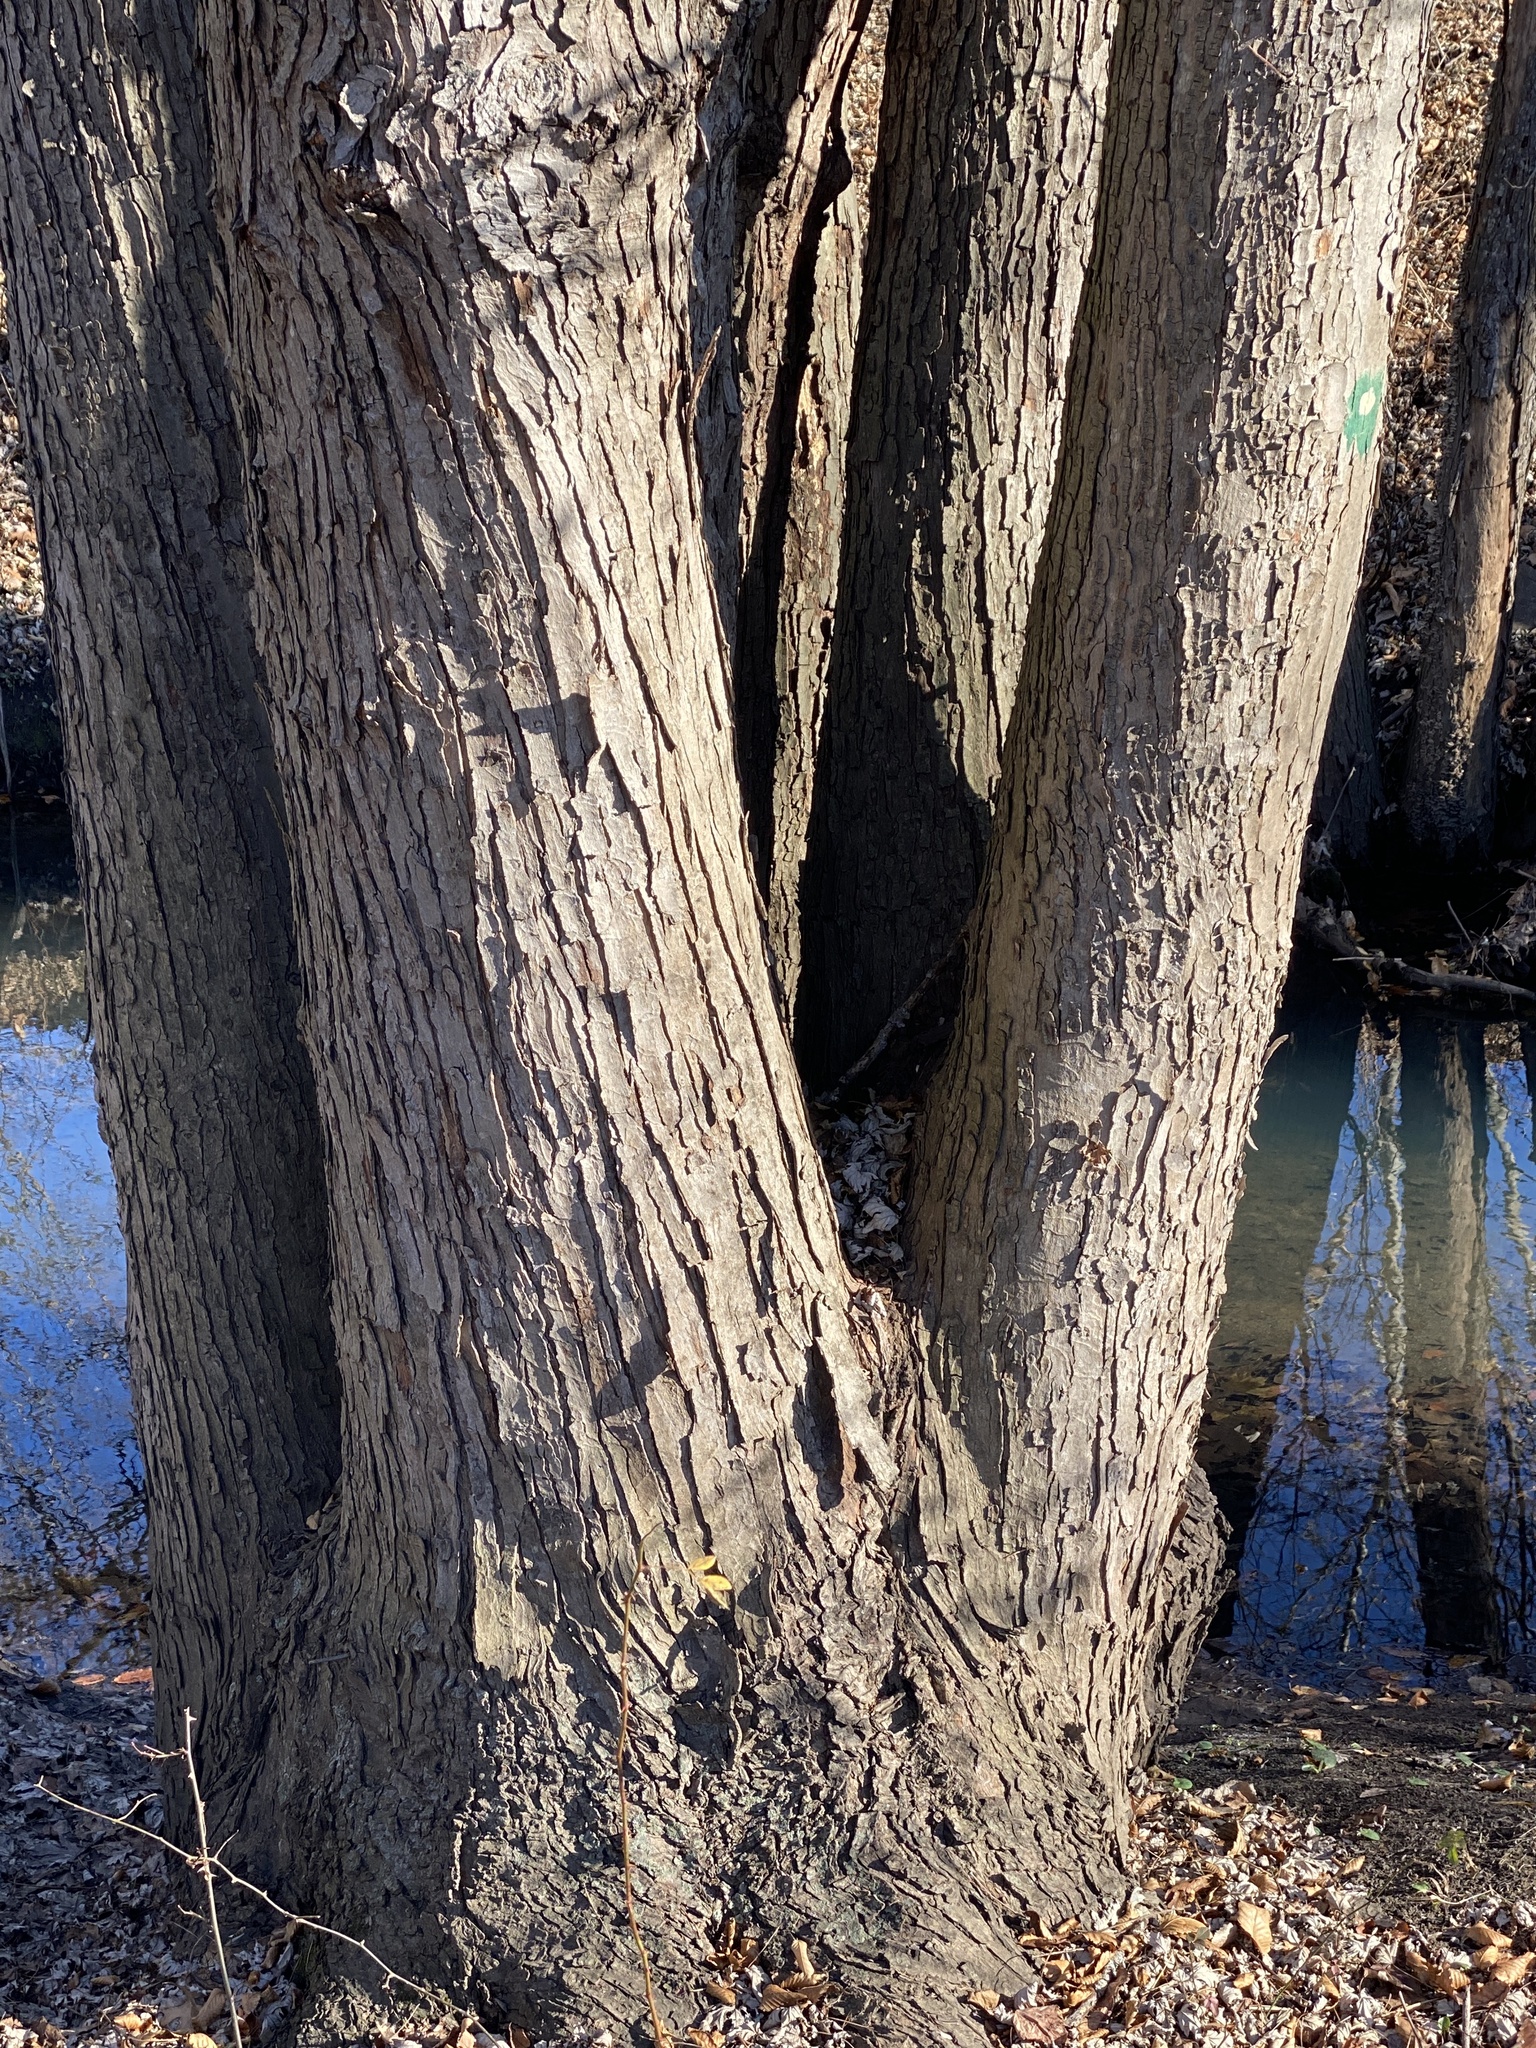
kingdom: Plantae
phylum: Tracheophyta
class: Magnoliopsida
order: Sapindales
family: Sapindaceae
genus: Acer
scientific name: Acer saccharinum
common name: Silver maple
